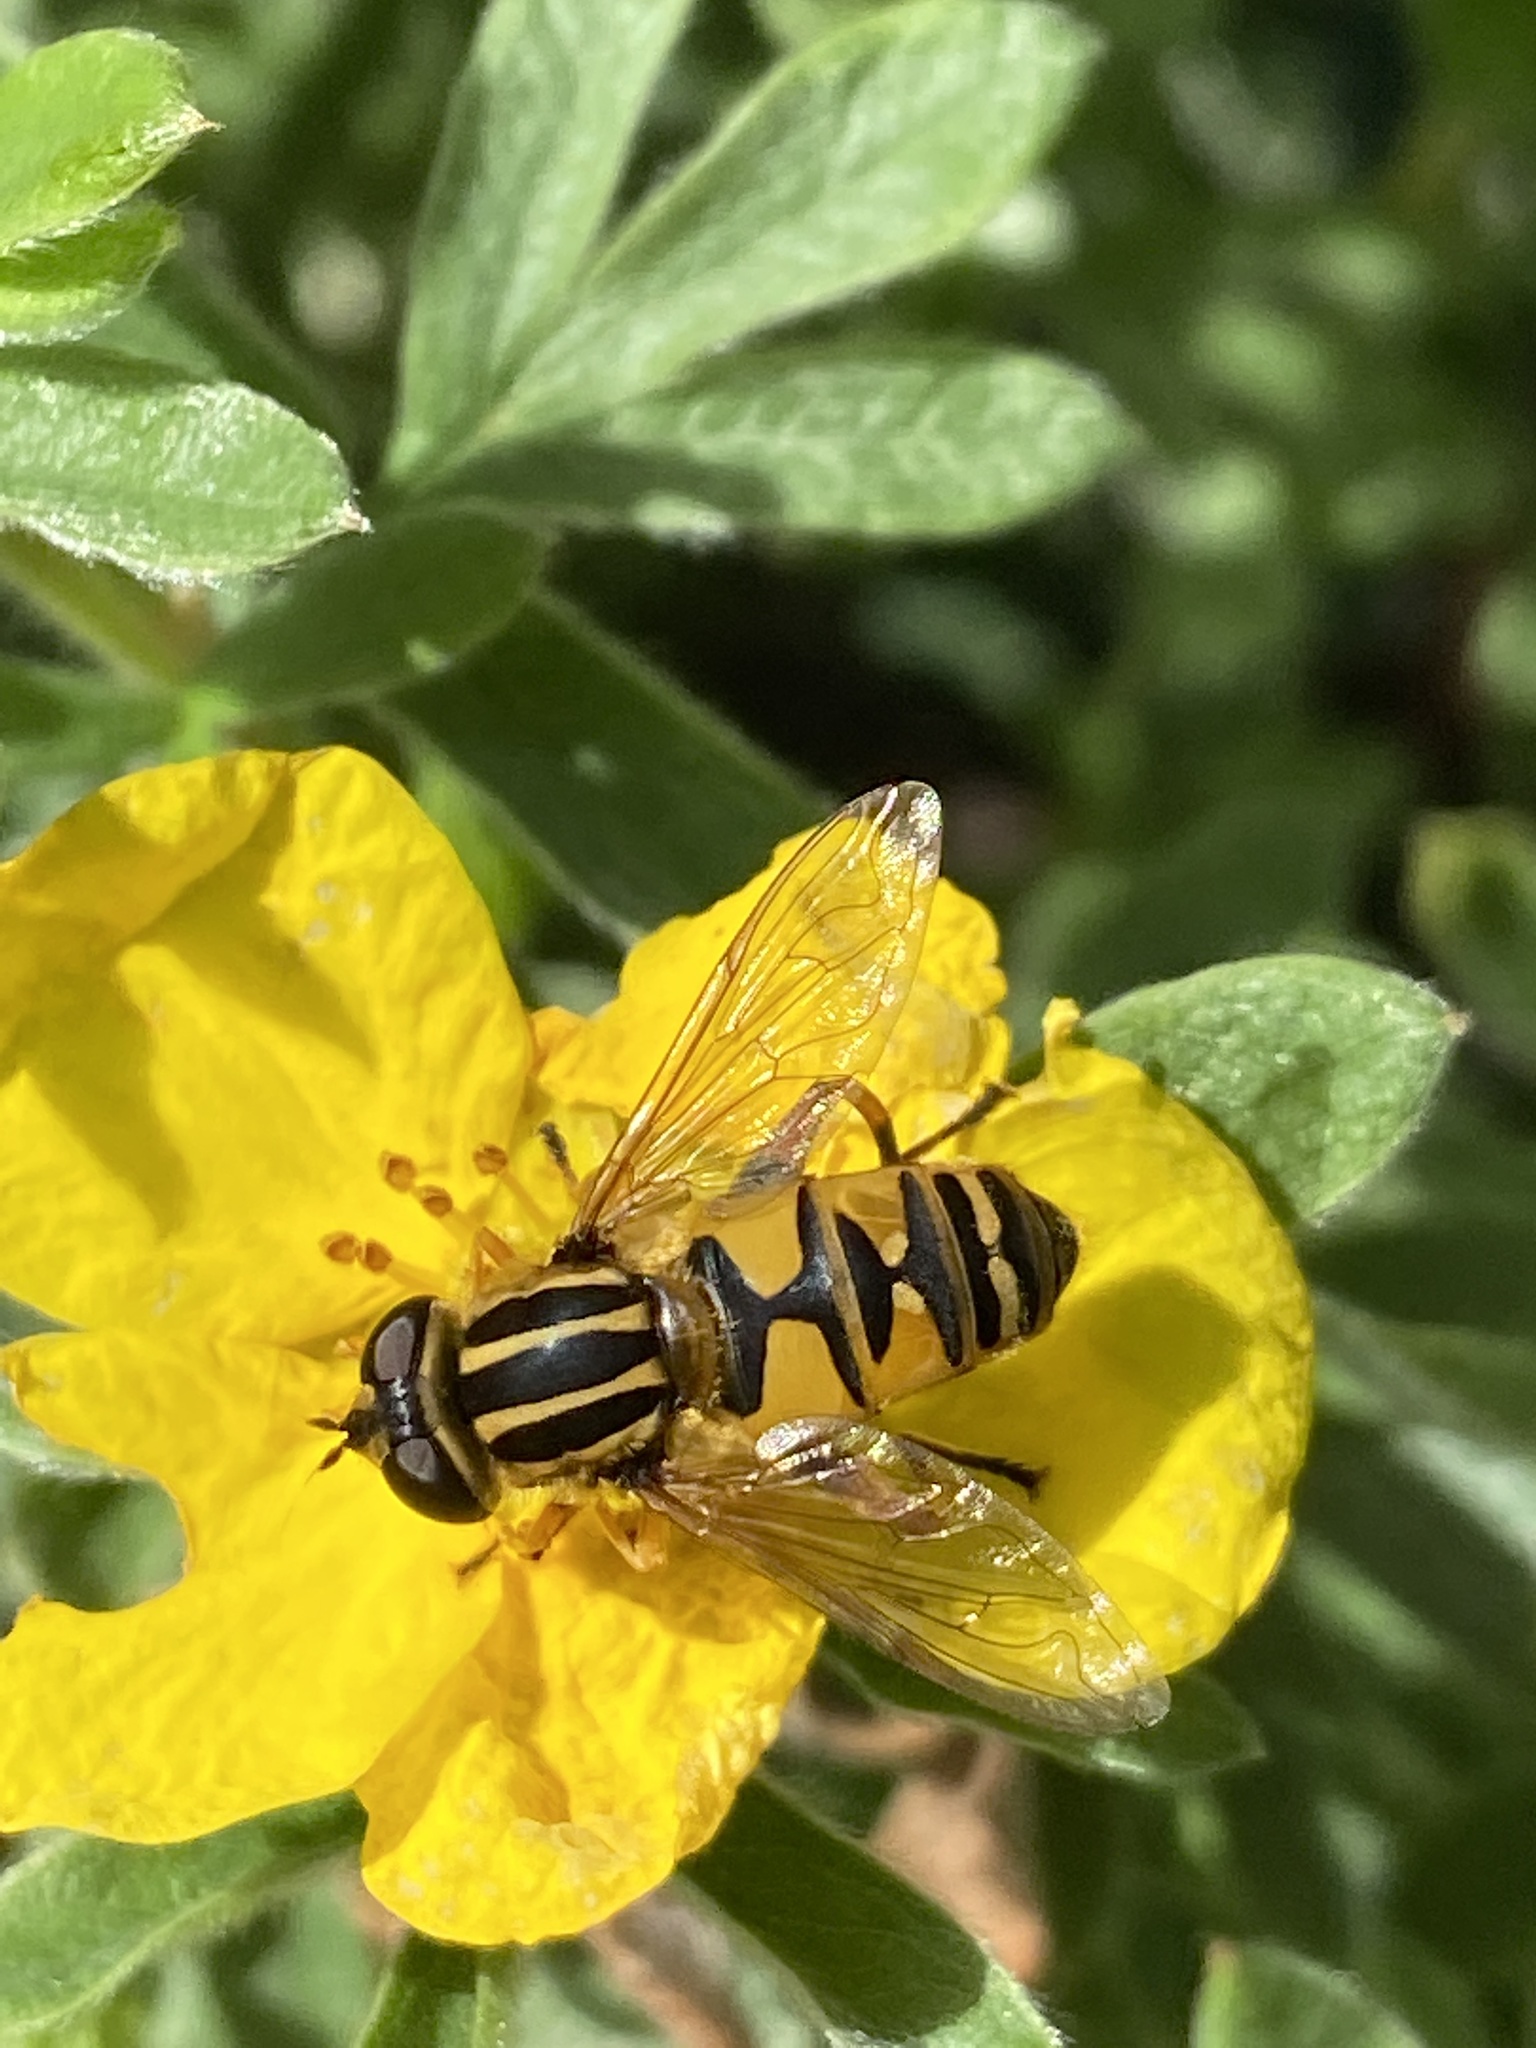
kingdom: Animalia
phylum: Arthropoda
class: Insecta
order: Diptera
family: Syrphidae
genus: Helophilus
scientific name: Helophilus pendulus
